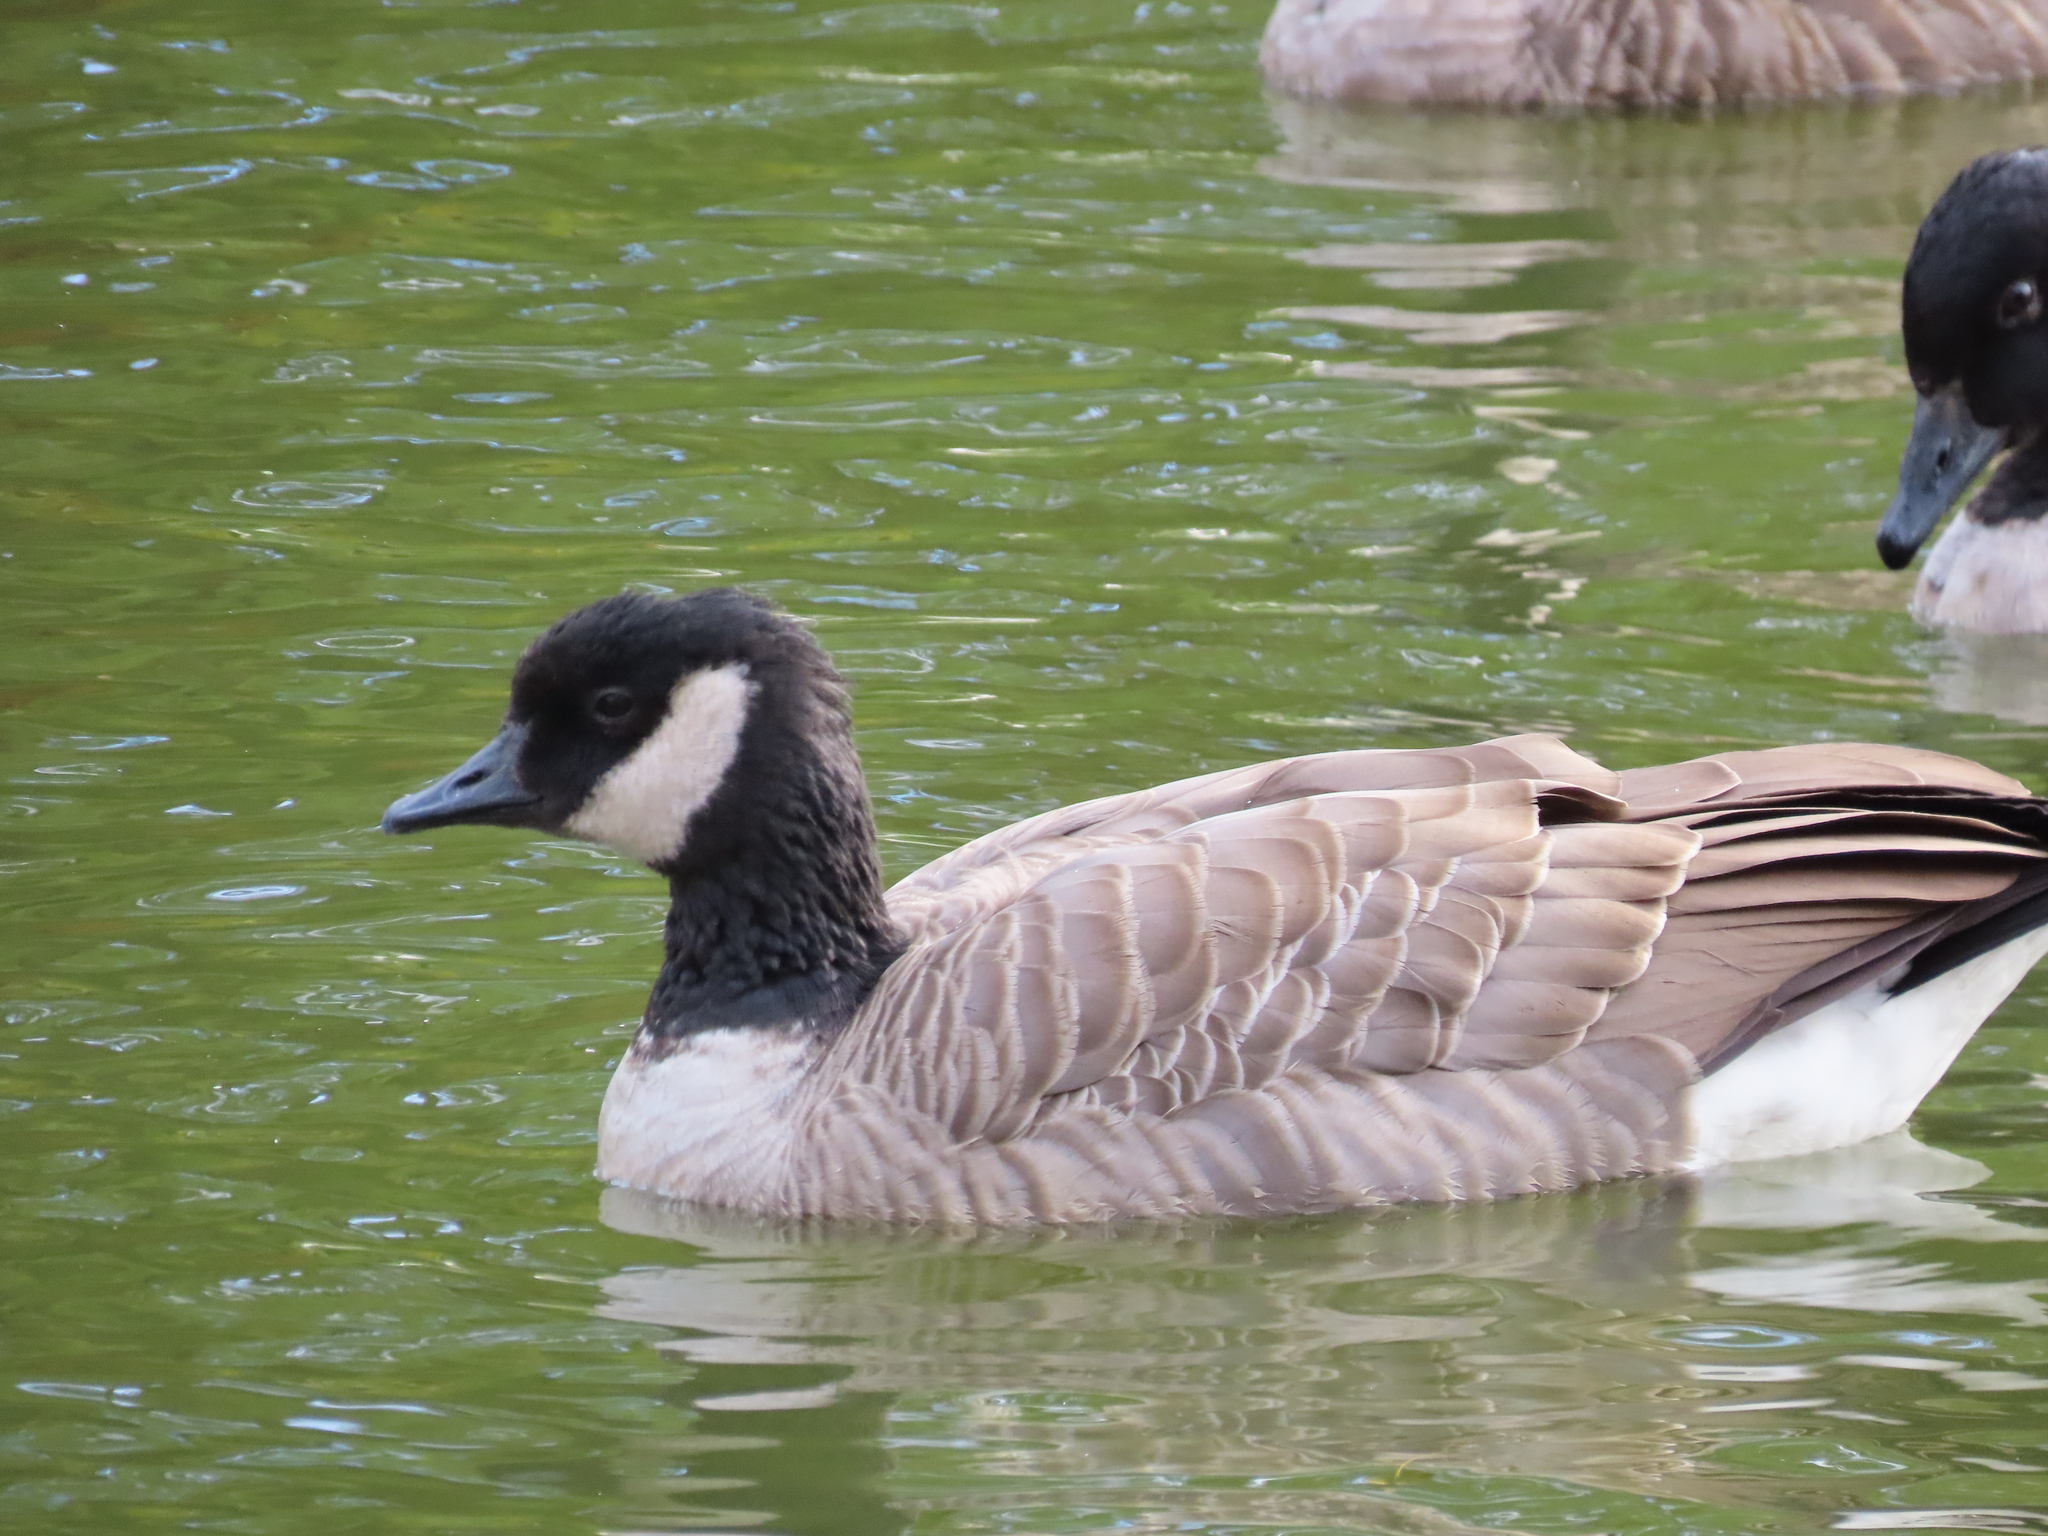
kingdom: Animalia
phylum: Chordata
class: Aves
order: Anseriformes
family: Anatidae
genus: Branta
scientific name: Branta hutchinsii
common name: Cackling goose
